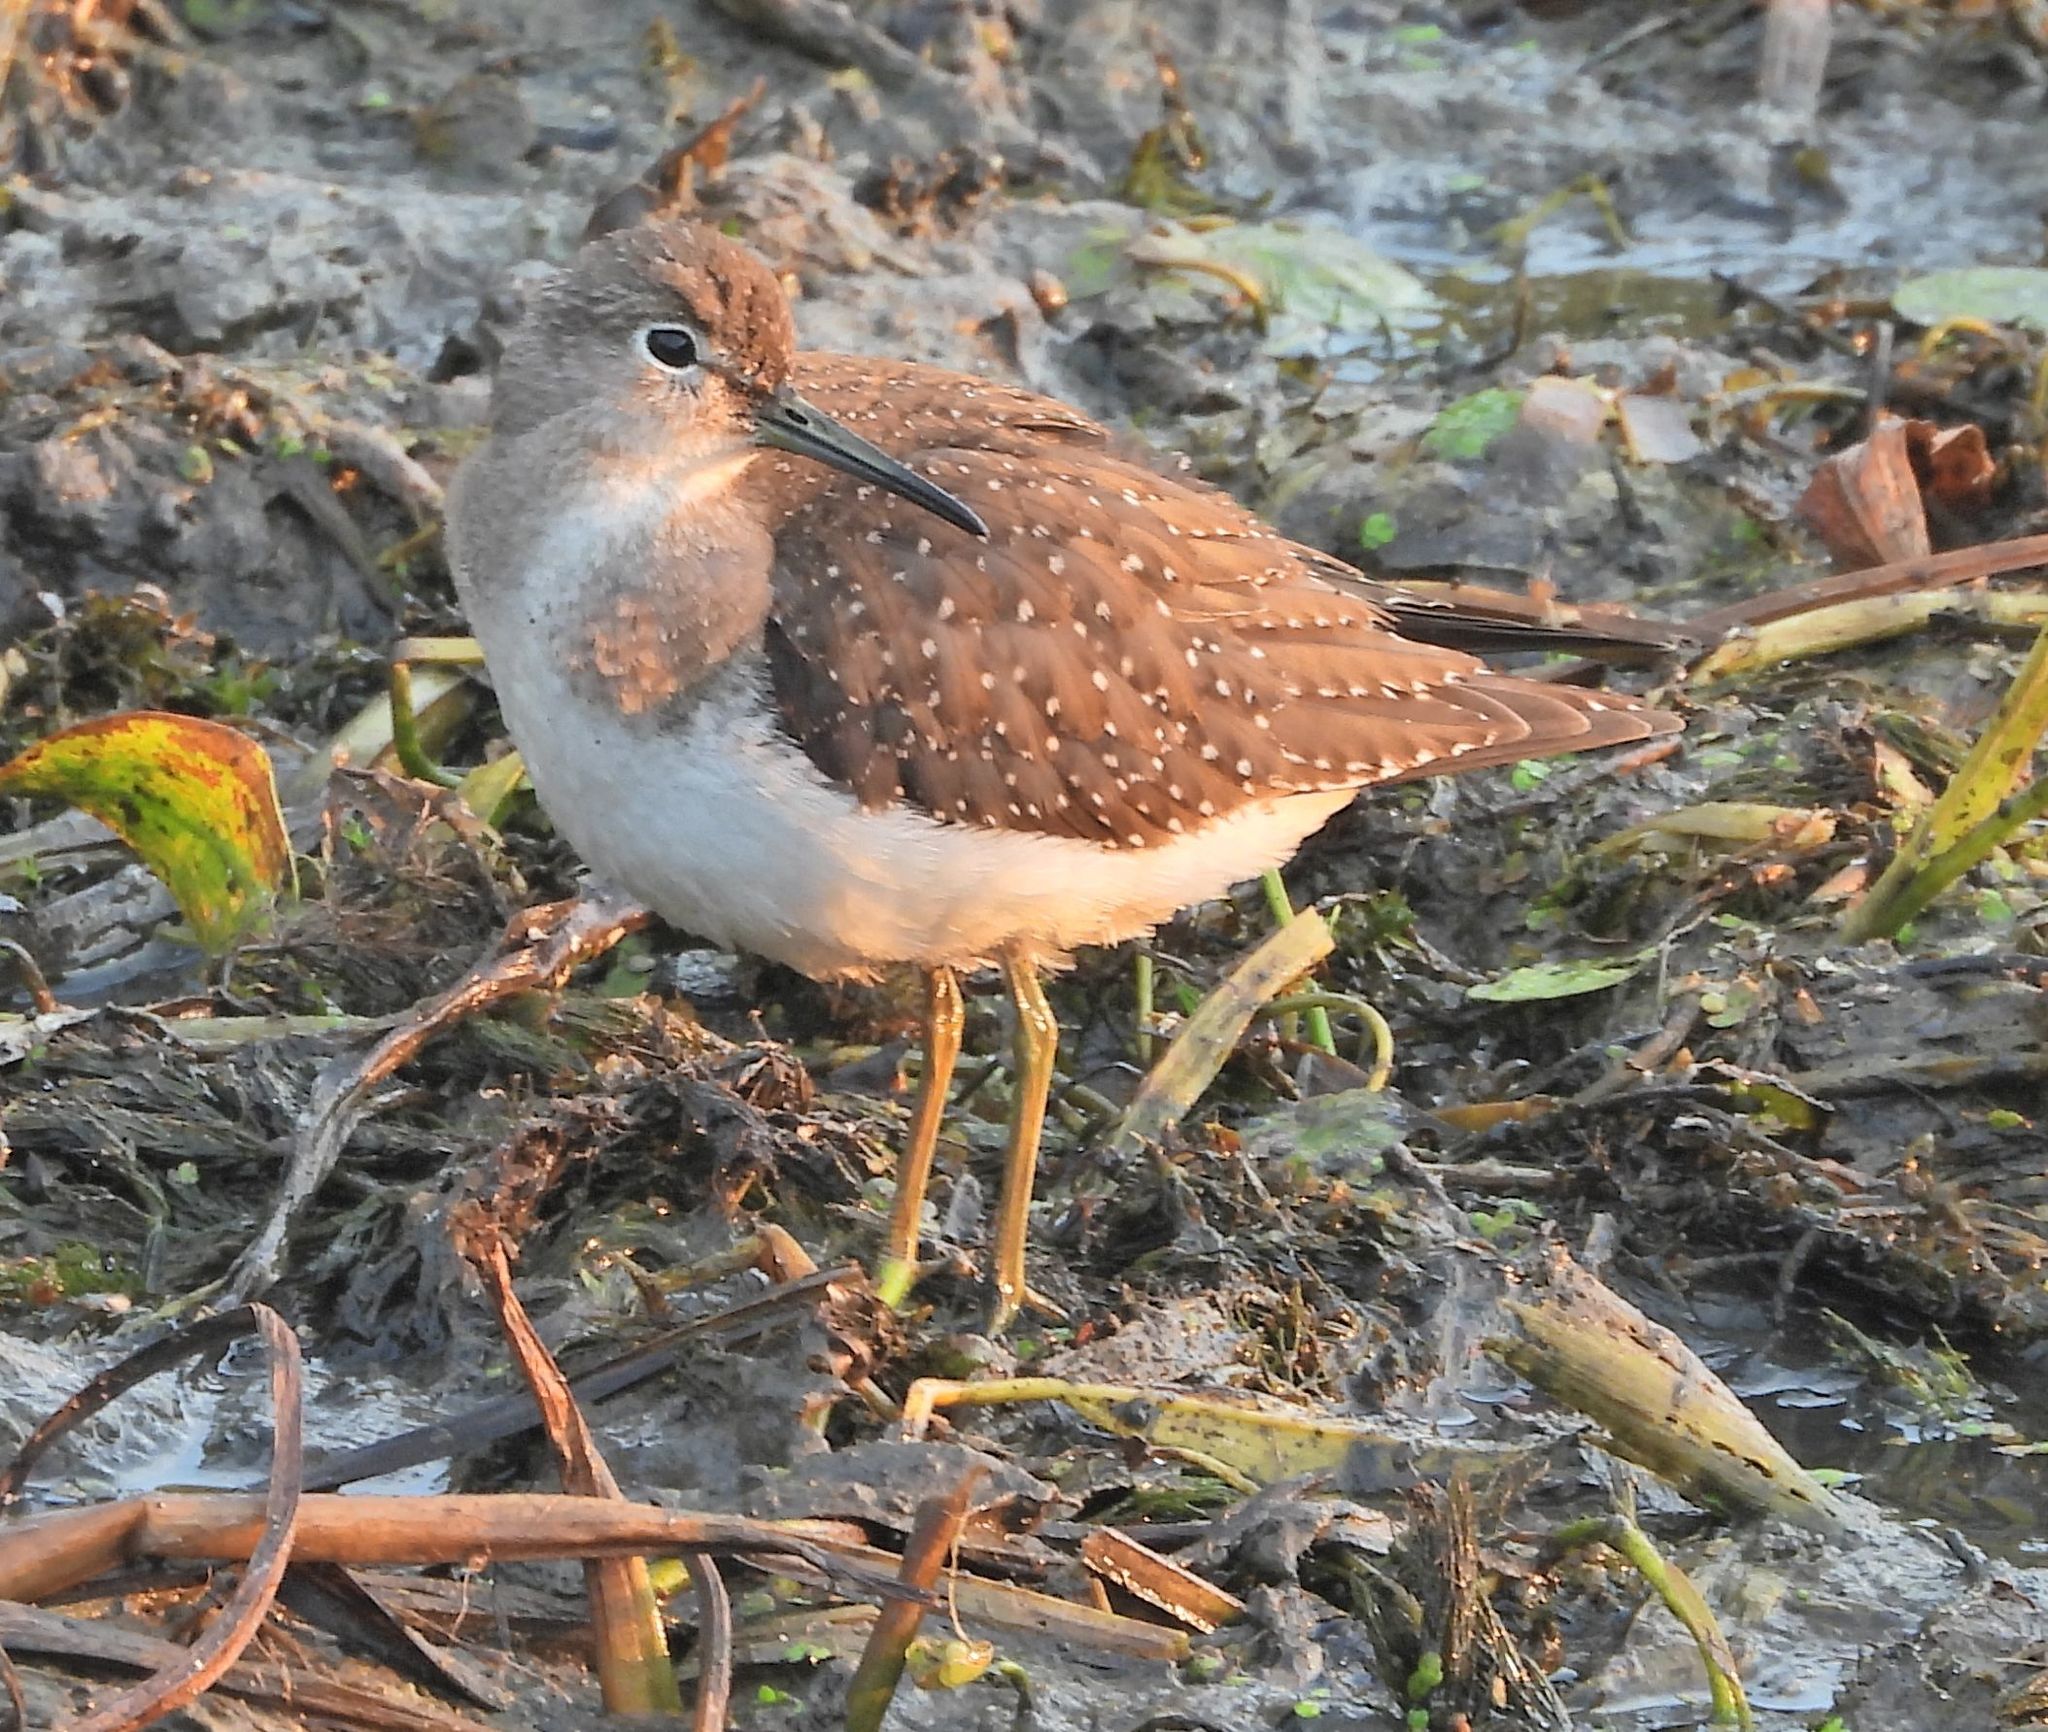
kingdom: Animalia
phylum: Chordata
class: Aves
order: Charadriiformes
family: Scolopacidae
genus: Tringa
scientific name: Tringa solitaria
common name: Solitary sandpiper
